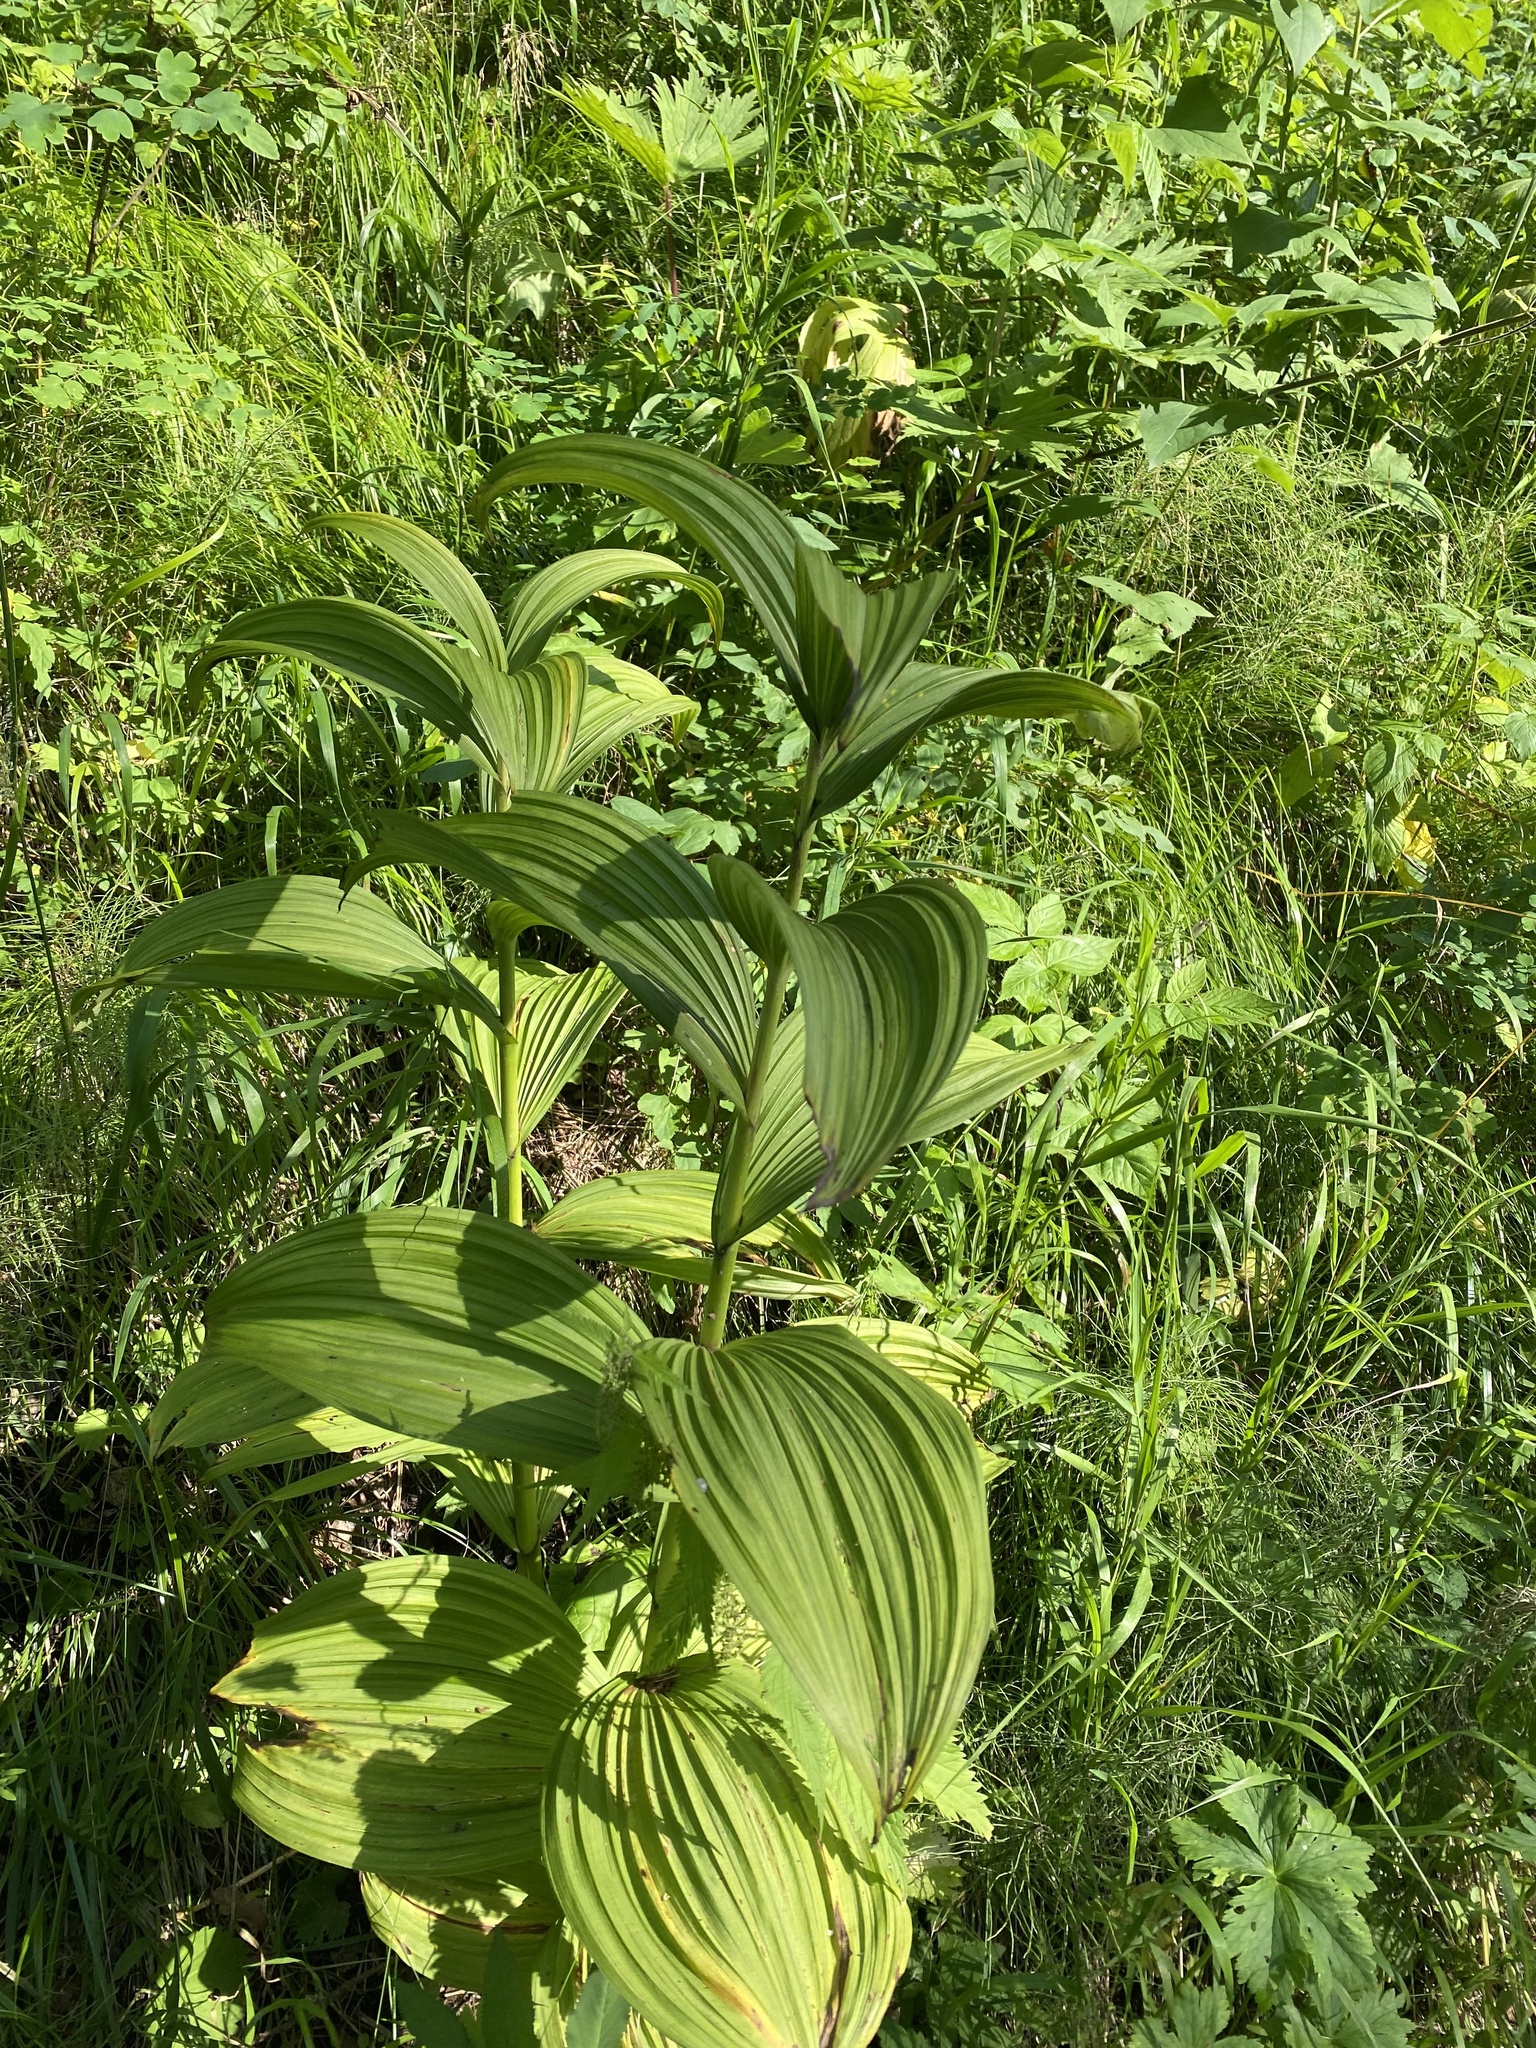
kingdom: Plantae
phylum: Tracheophyta
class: Liliopsida
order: Liliales
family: Melanthiaceae
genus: Veratrum
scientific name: Veratrum lobelianum
